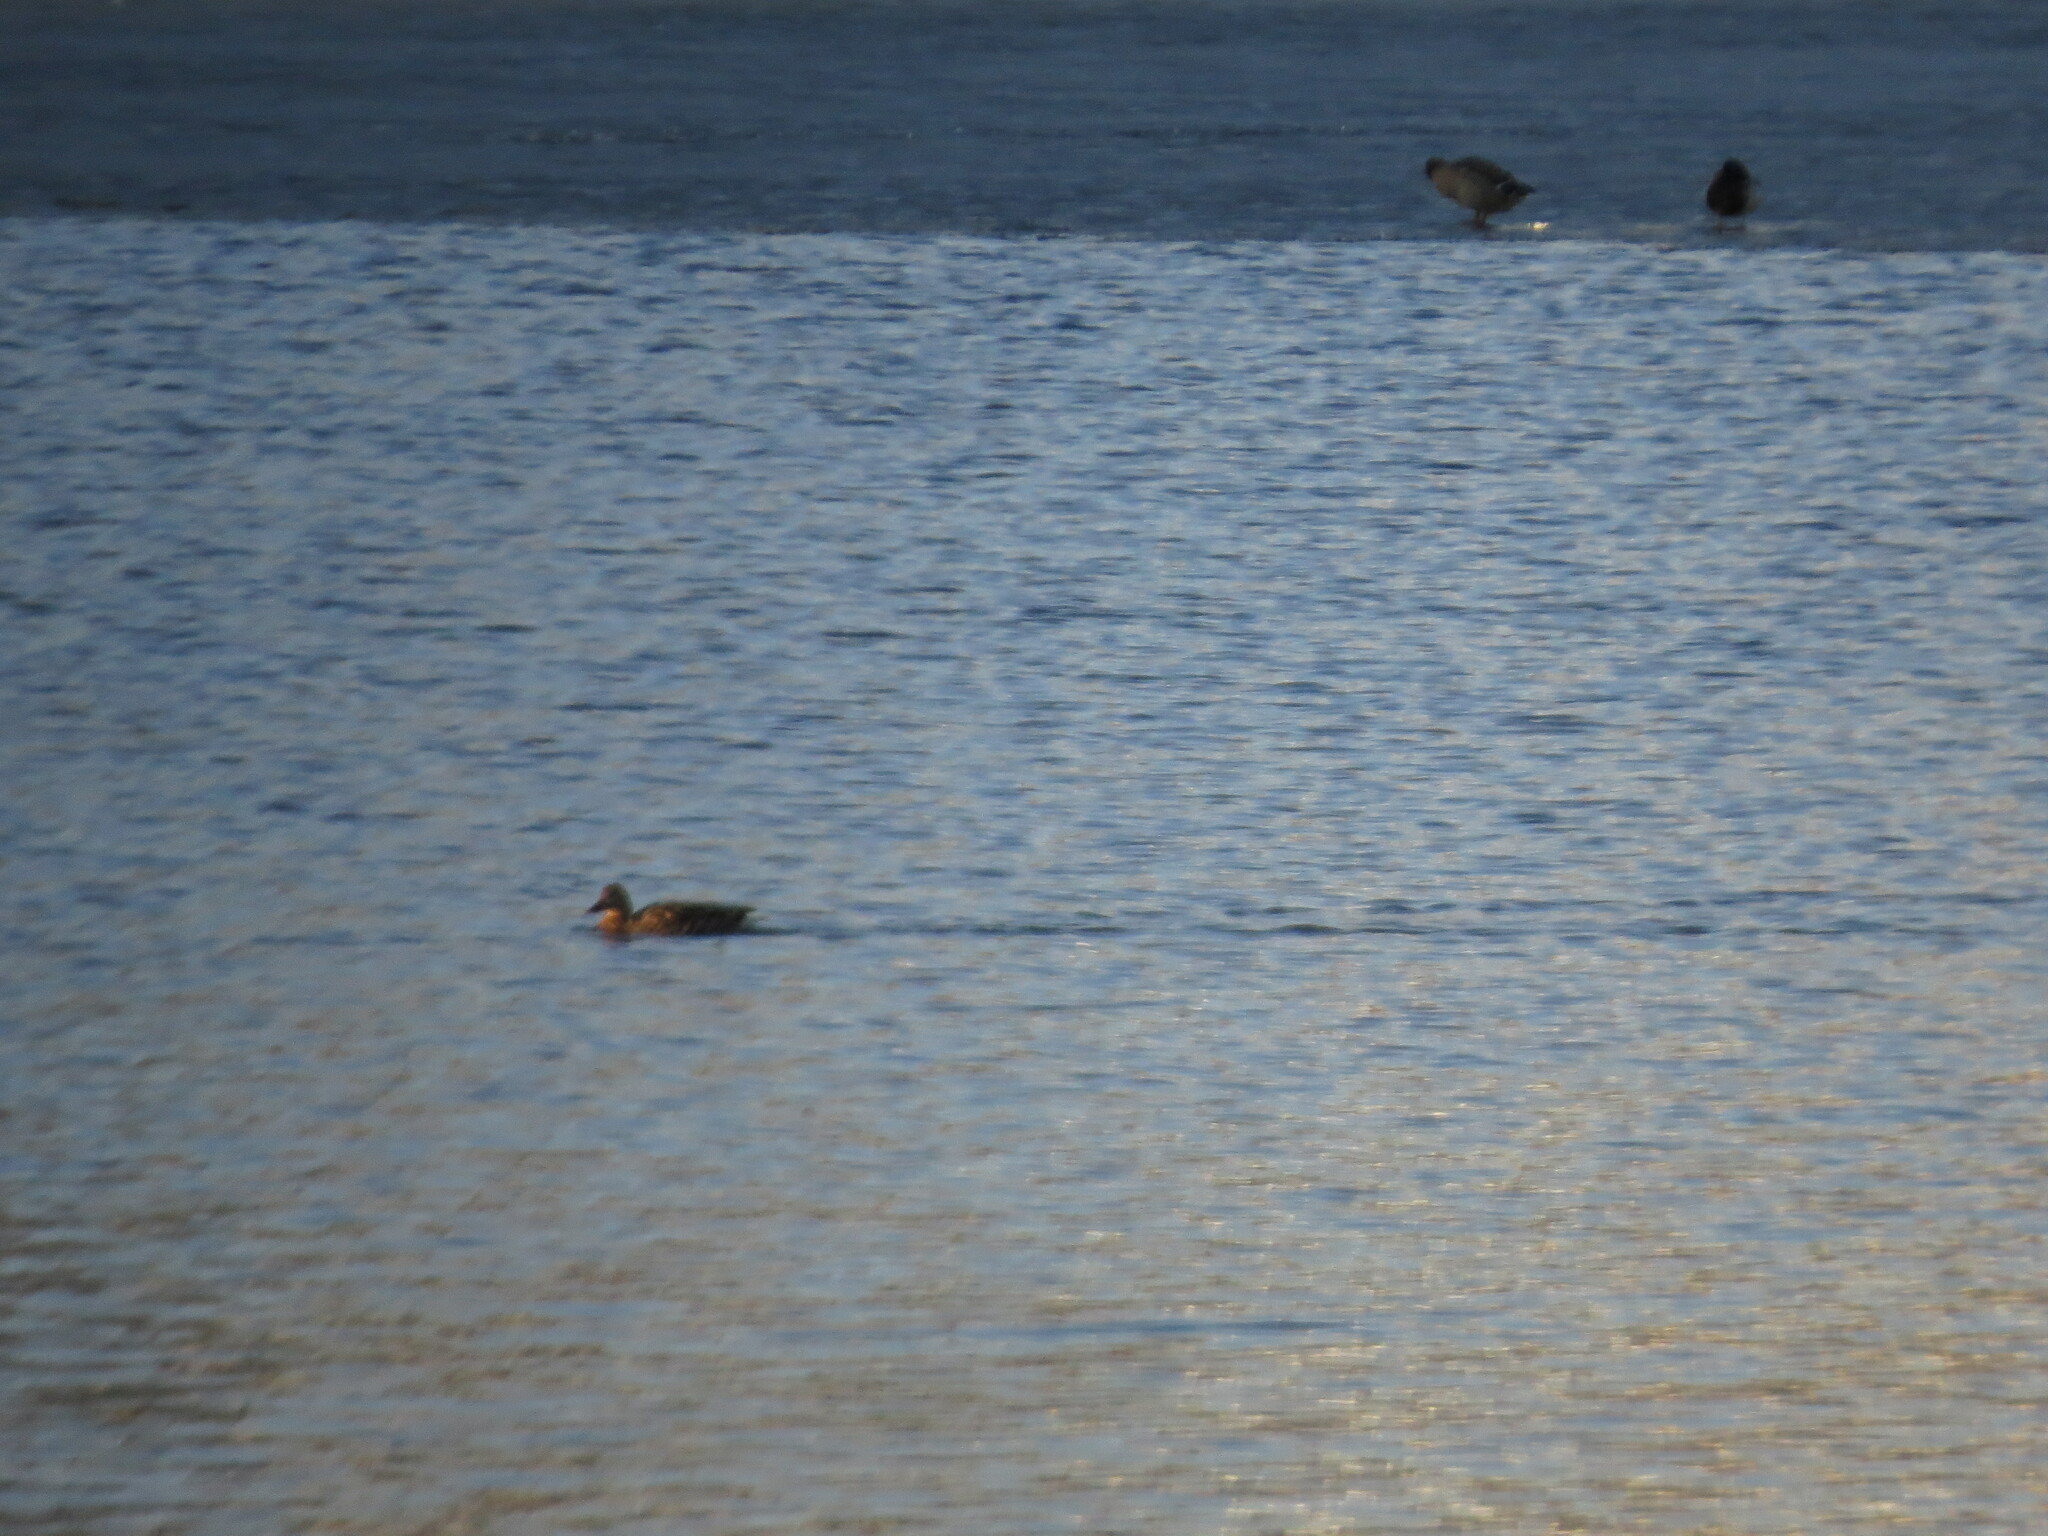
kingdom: Animalia
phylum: Chordata
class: Aves
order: Anseriformes
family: Anatidae
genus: Anas
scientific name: Anas platyrhynchos
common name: Mallard
